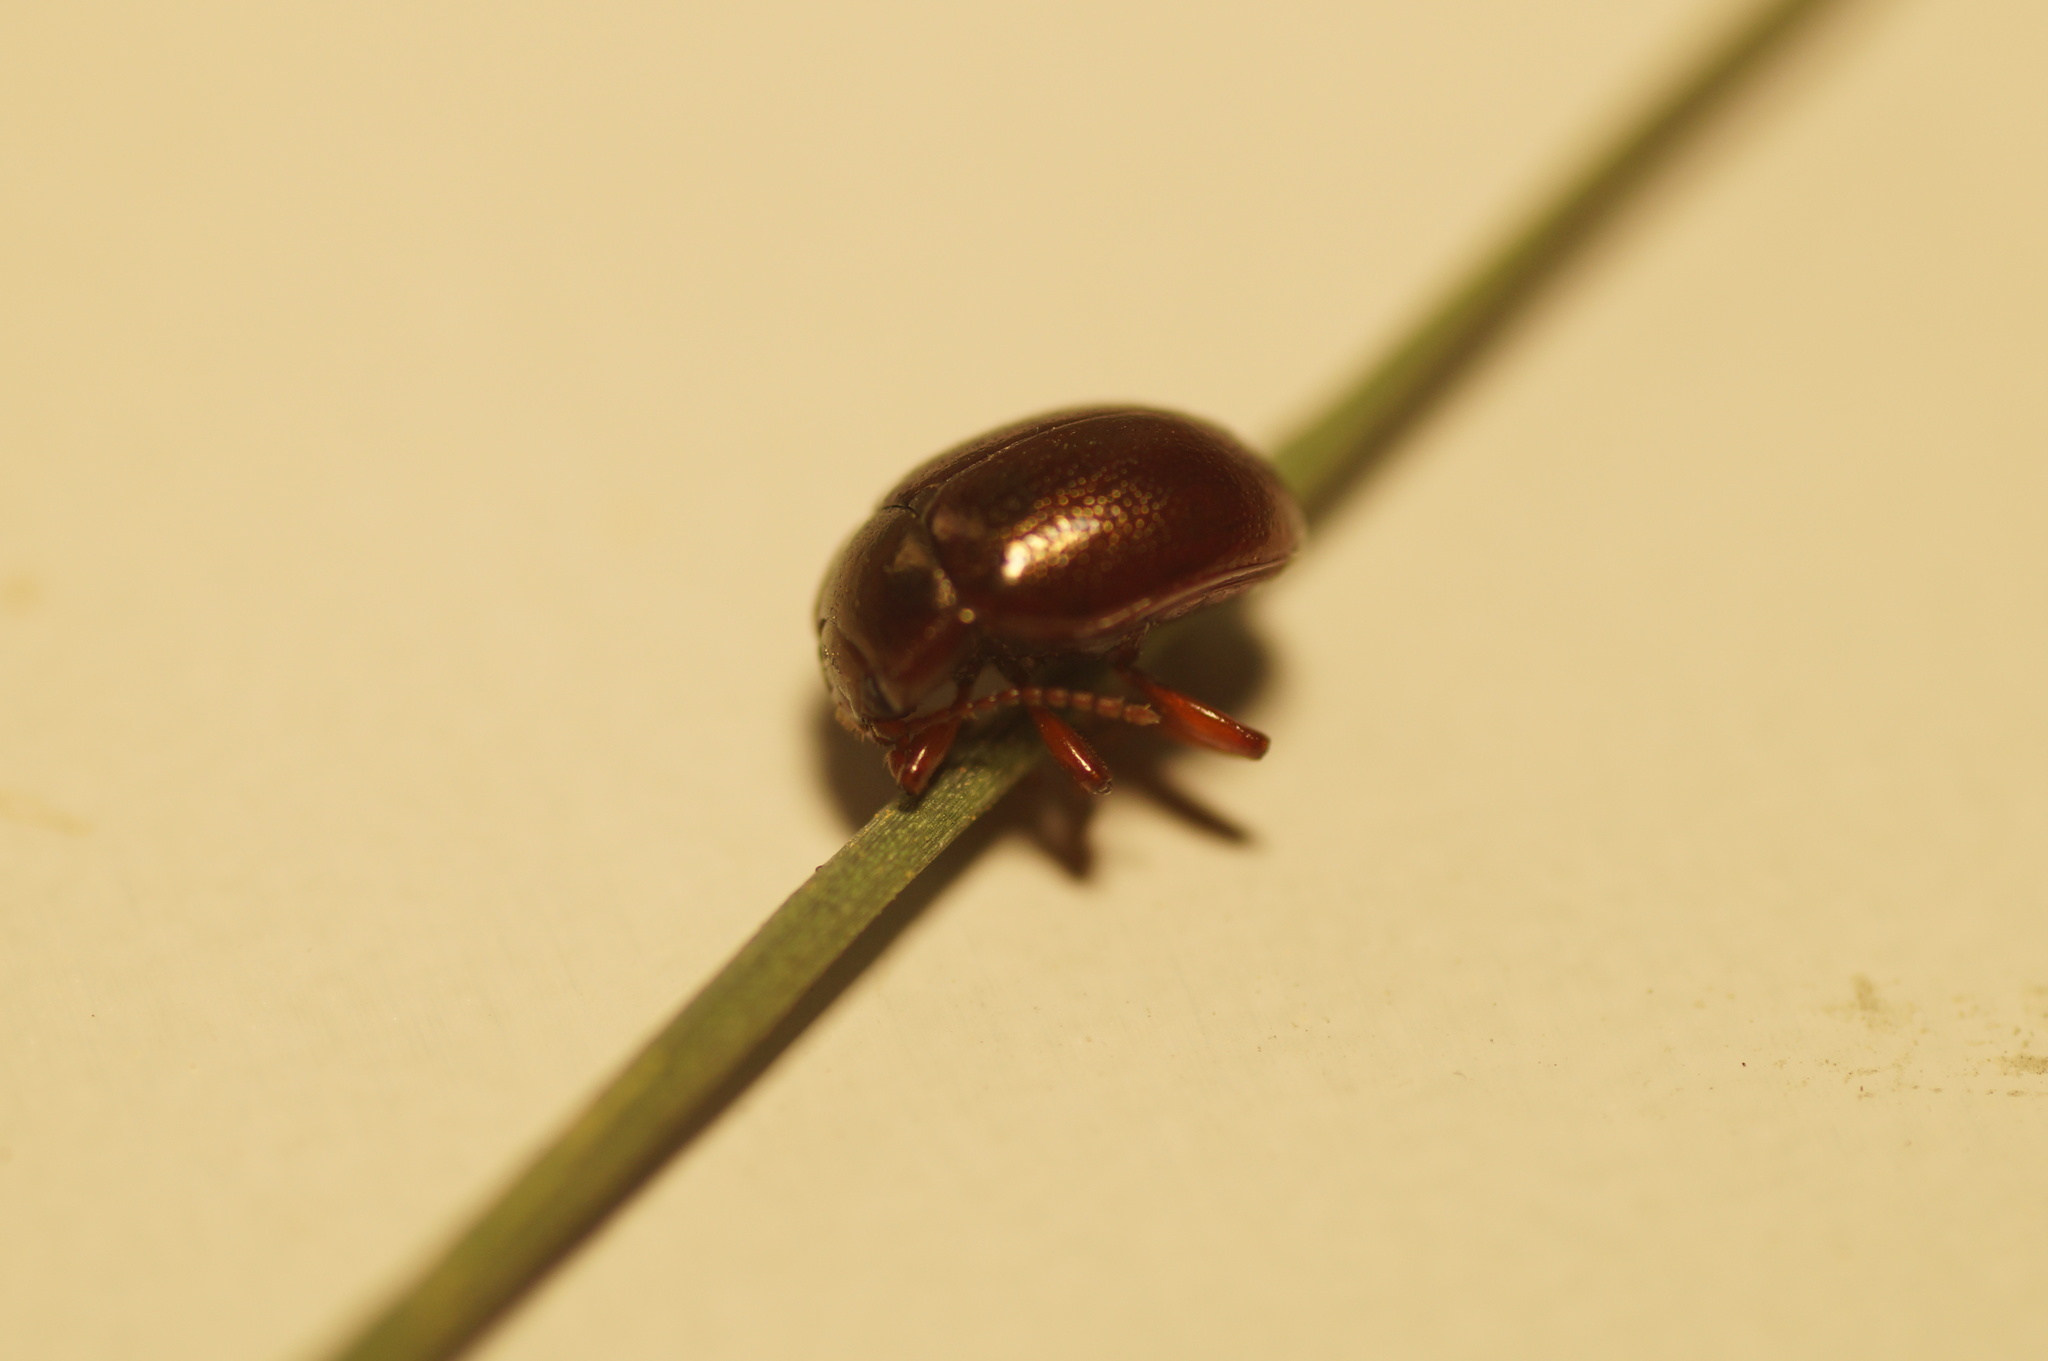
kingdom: Animalia
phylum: Arthropoda
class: Insecta
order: Coleoptera
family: Chrysomelidae
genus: Chrysolina
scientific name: Chrysolina staphylaea
